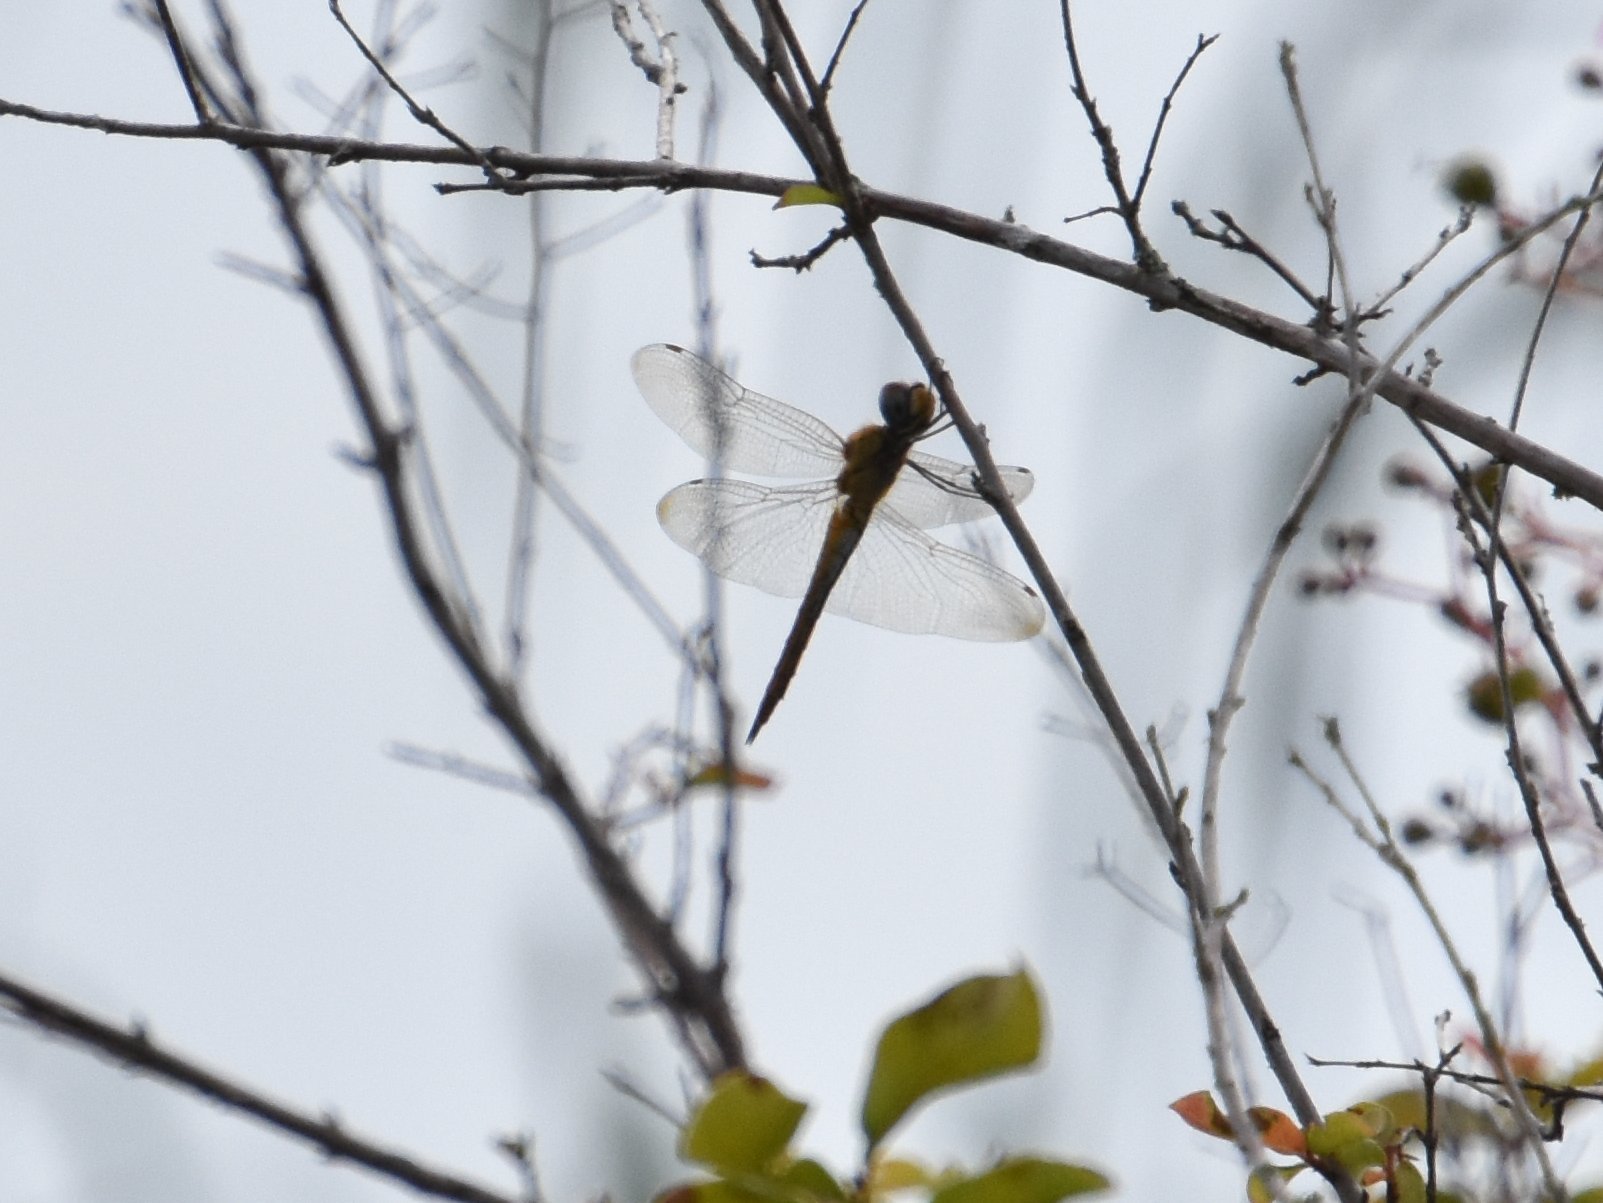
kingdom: Animalia
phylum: Arthropoda
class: Insecta
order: Odonata
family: Libellulidae
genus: Pantala
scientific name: Pantala flavescens
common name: Wandering glider
